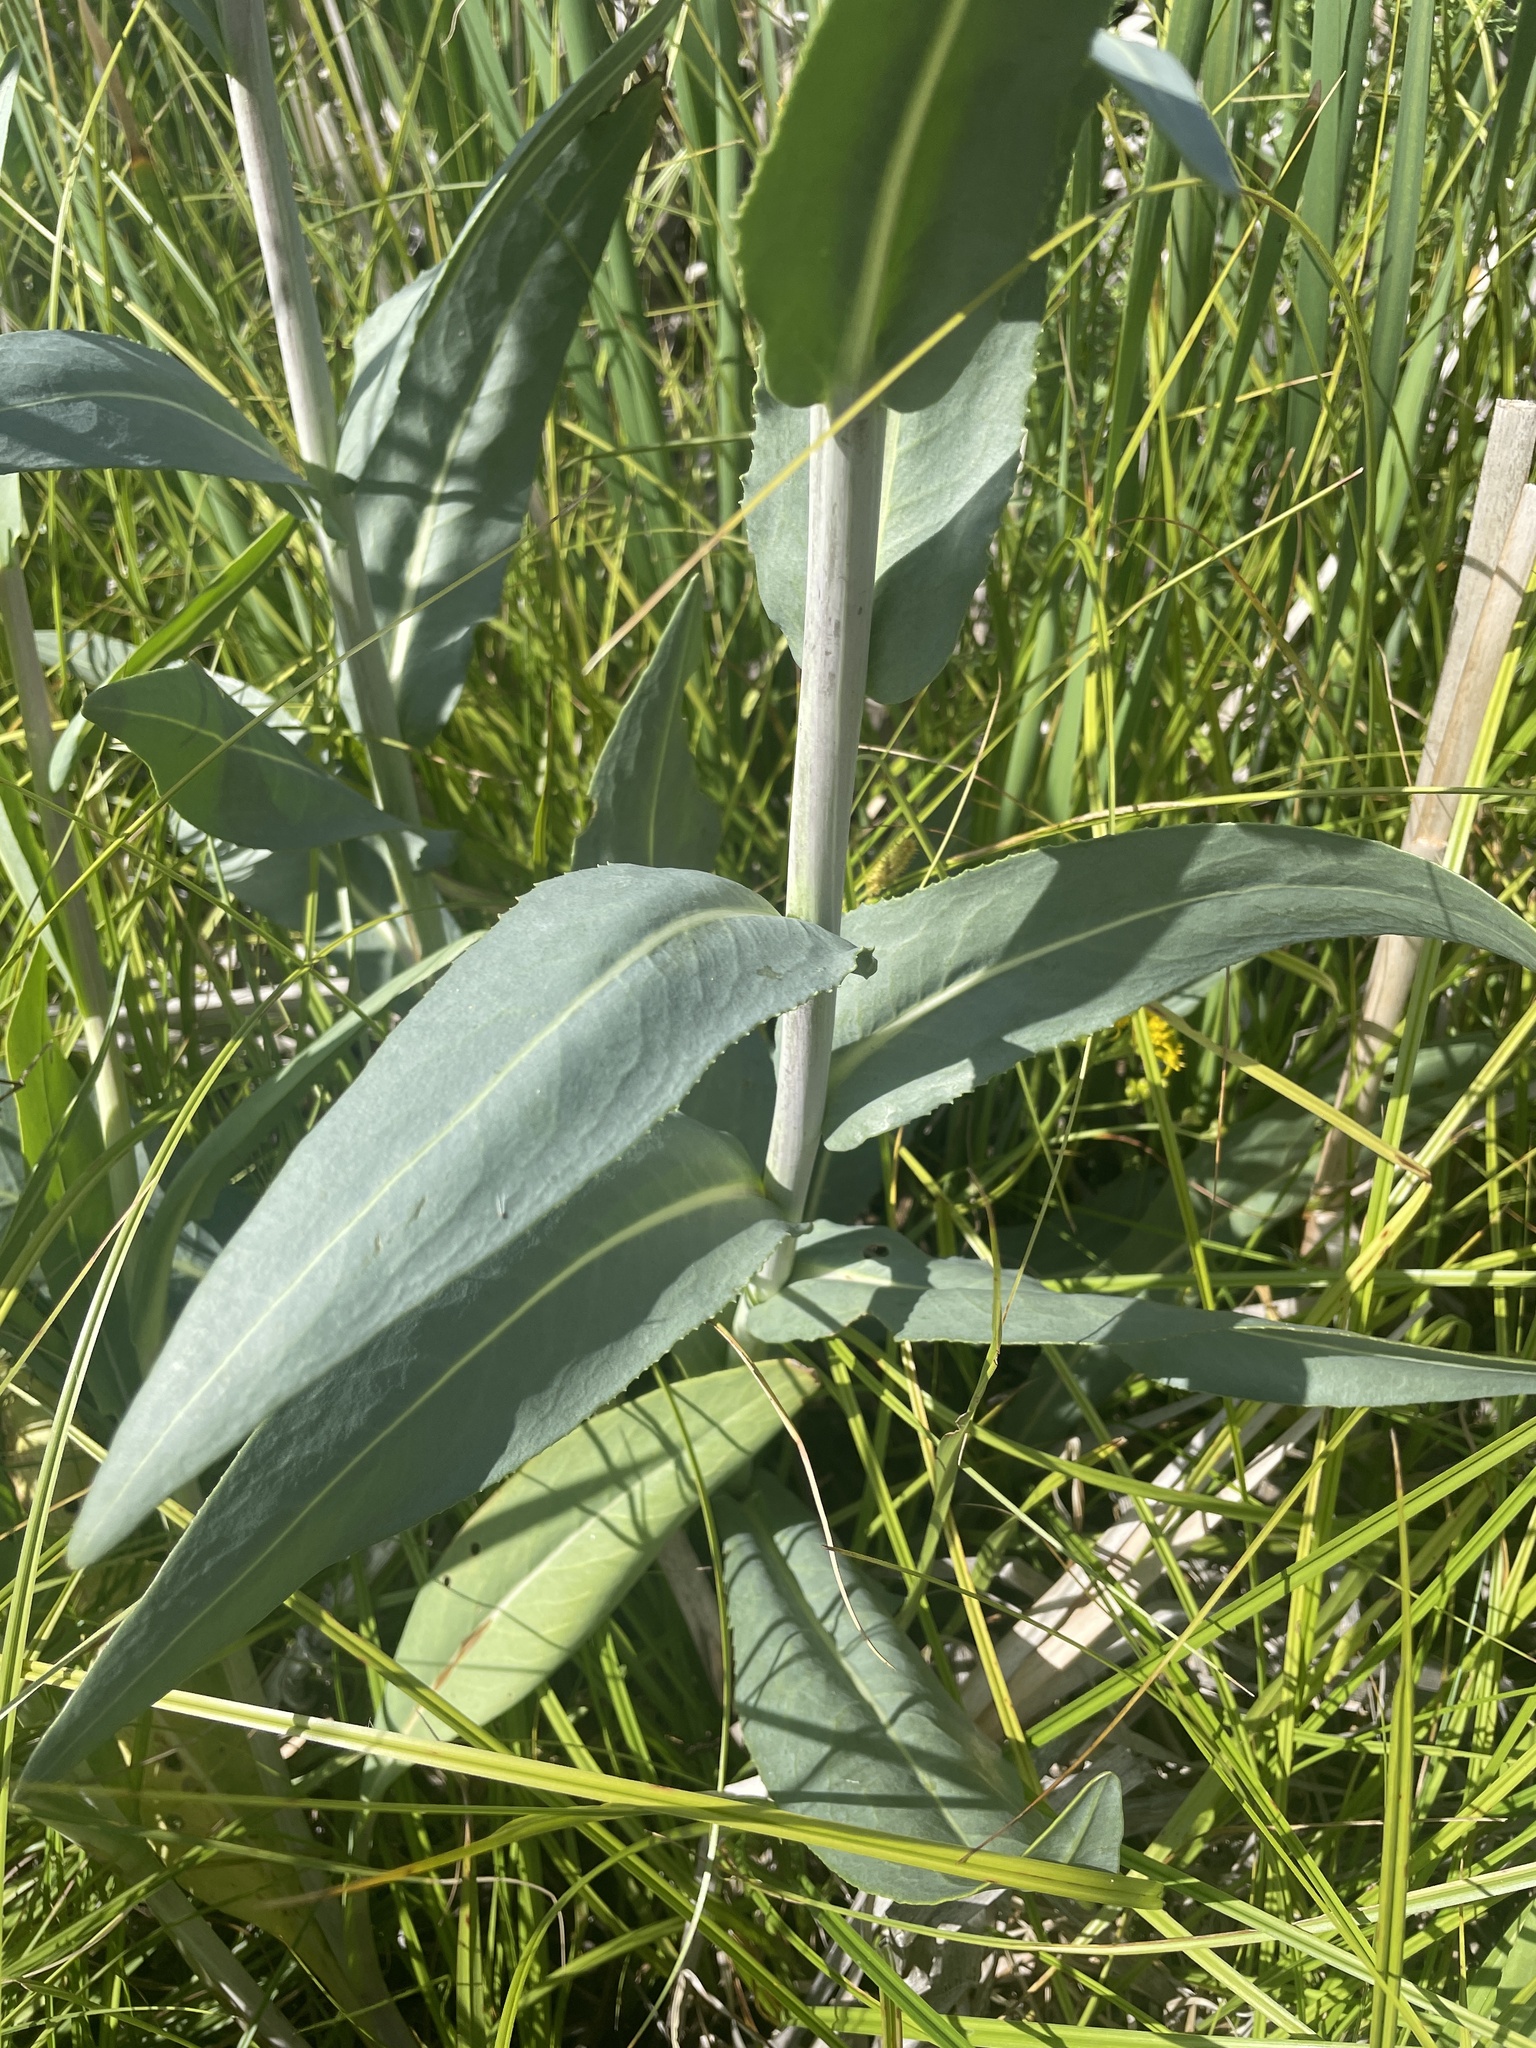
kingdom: Plantae
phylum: Tracheophyta
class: Magnoliopsida
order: Asterales
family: Asteraceae
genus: Senecio
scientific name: Senecio hydrophilus
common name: Water ragwort
